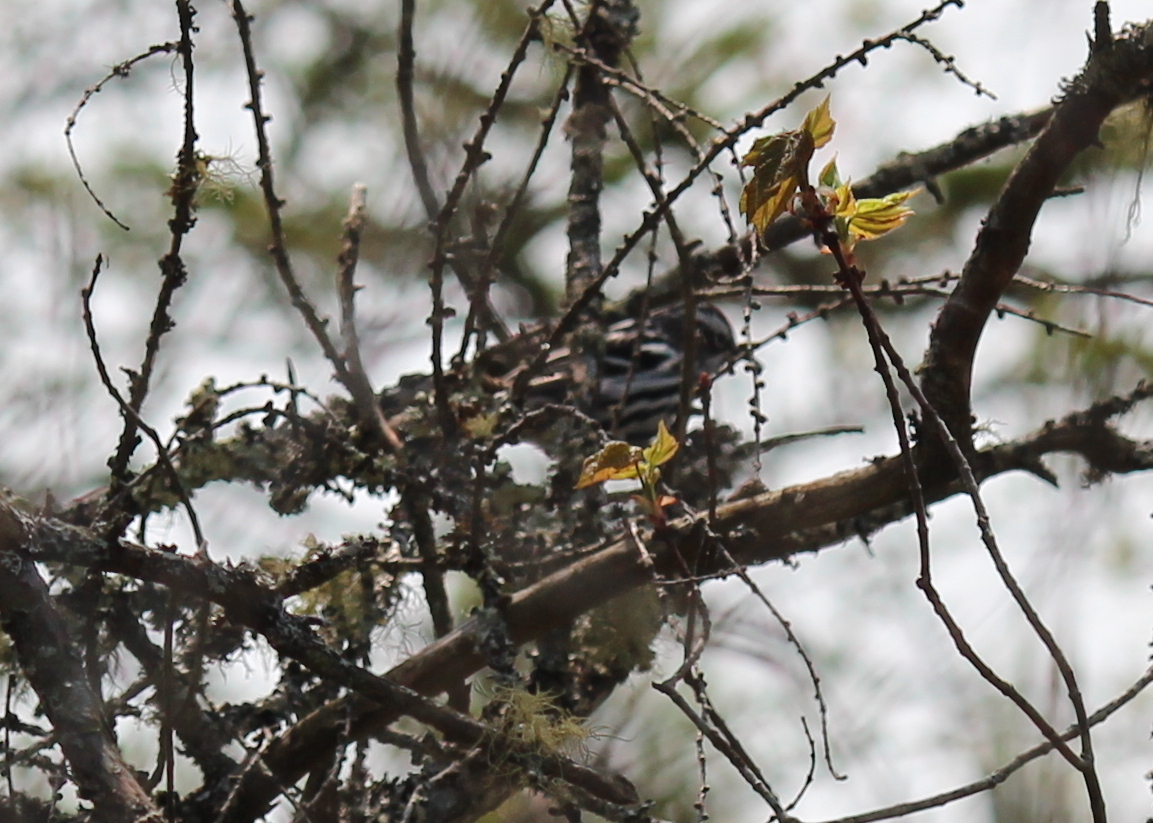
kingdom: Animalia
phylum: Chordata
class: Aves
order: Passeriformes
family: Parulidae
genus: Mniotilta
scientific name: Mniotilta varia
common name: Black-and-white warbler
